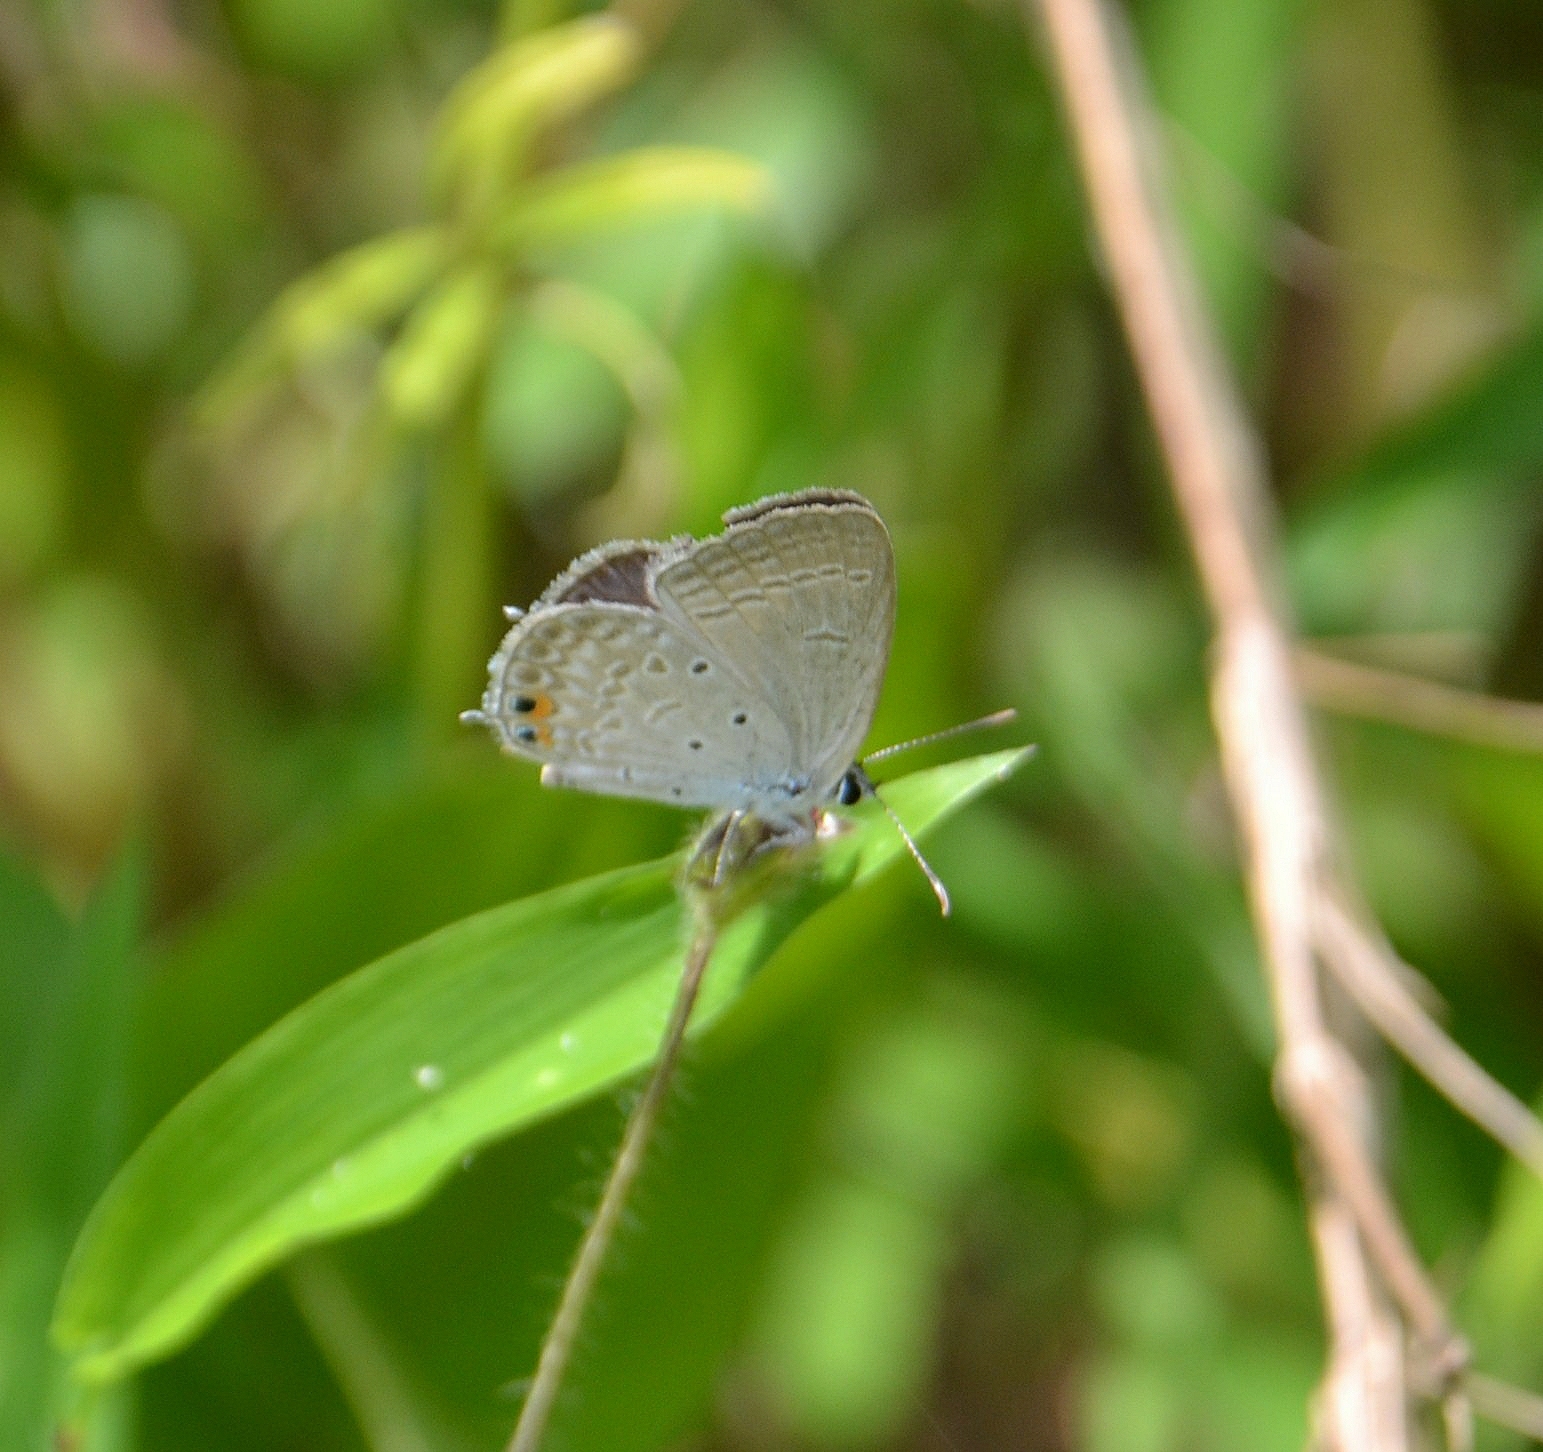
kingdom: Animalia
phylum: Arthropoda
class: Insecta
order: Lepidoptera
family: Lycaenidae
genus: Euchrysops
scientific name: Euchrysops cnejus
